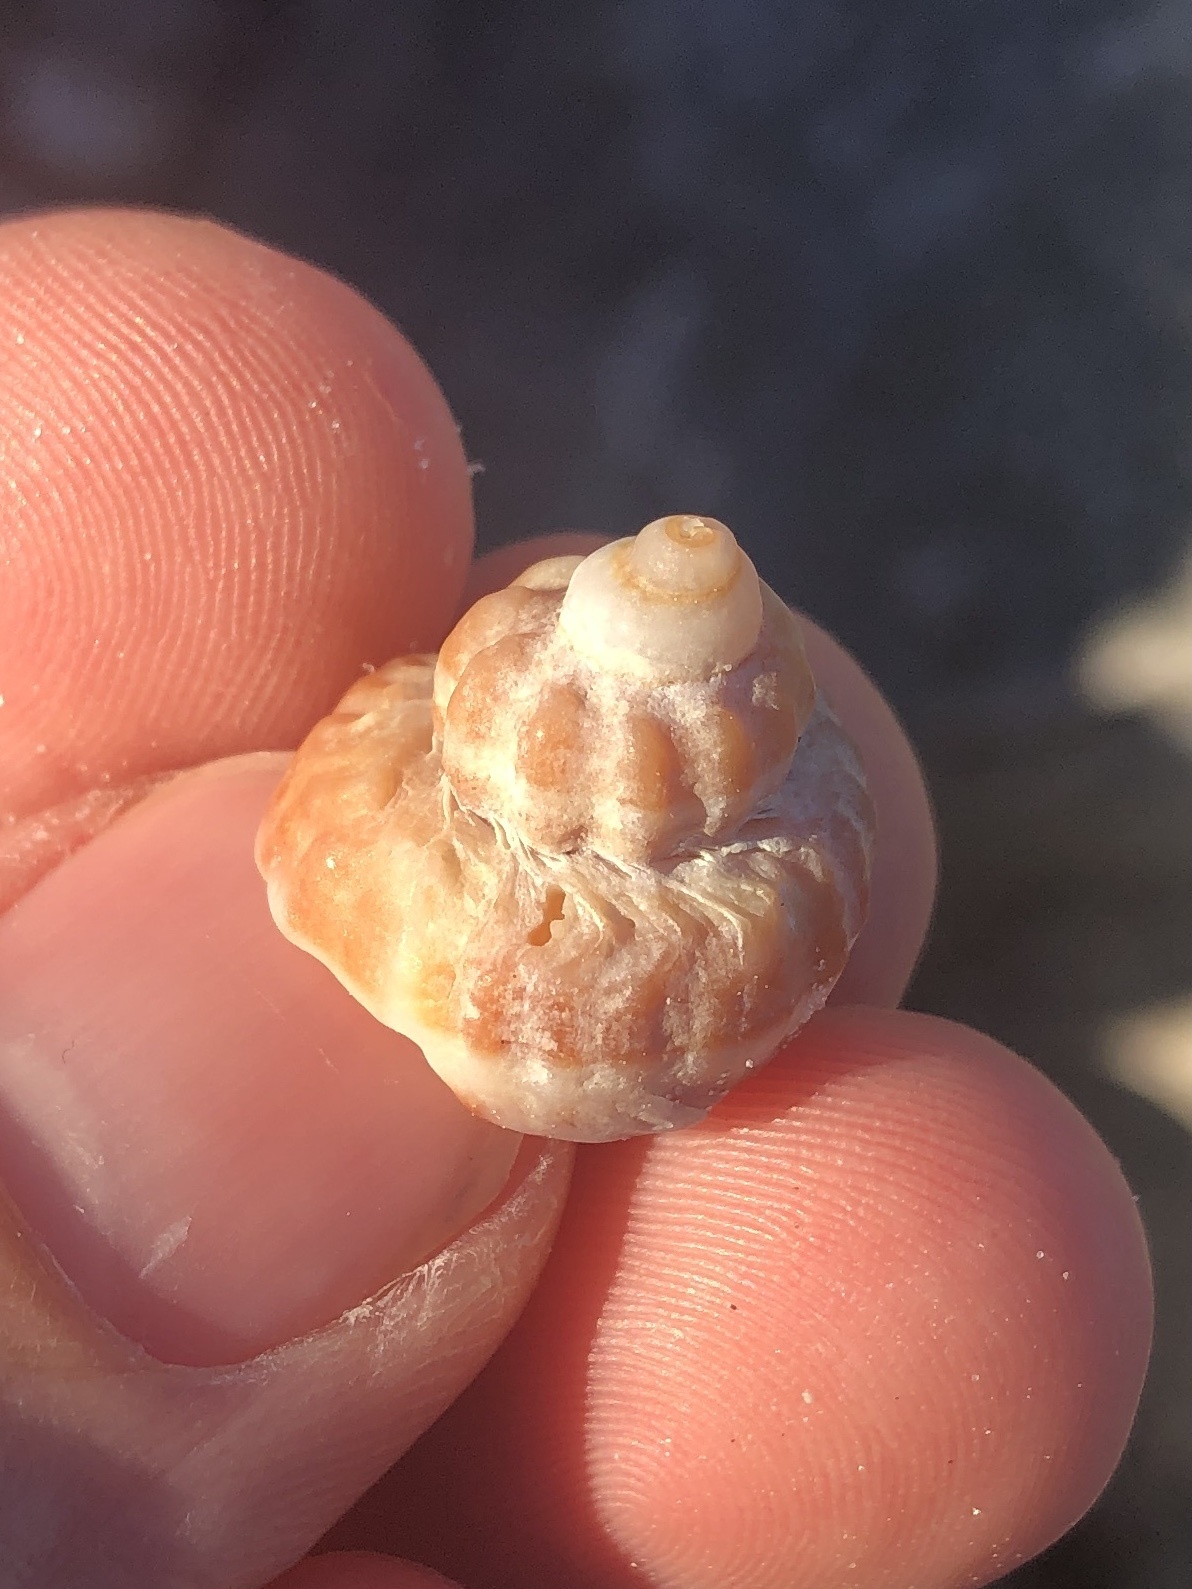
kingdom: Animalia
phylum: Mollusca
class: Gastropoda
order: Neogastropoda
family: Melongenidae
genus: Melongena
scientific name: Melongena corona
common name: American crown conch
